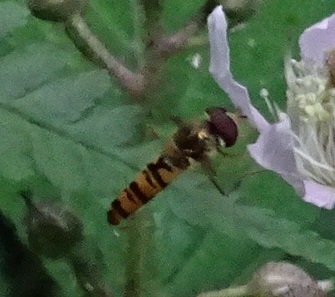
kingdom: Animalia
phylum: Arthropoda
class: Insecta
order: Diptera
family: Syrphidae
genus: Episyrphus
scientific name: Episyrphus balteatus
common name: Marmalade hoverfly
